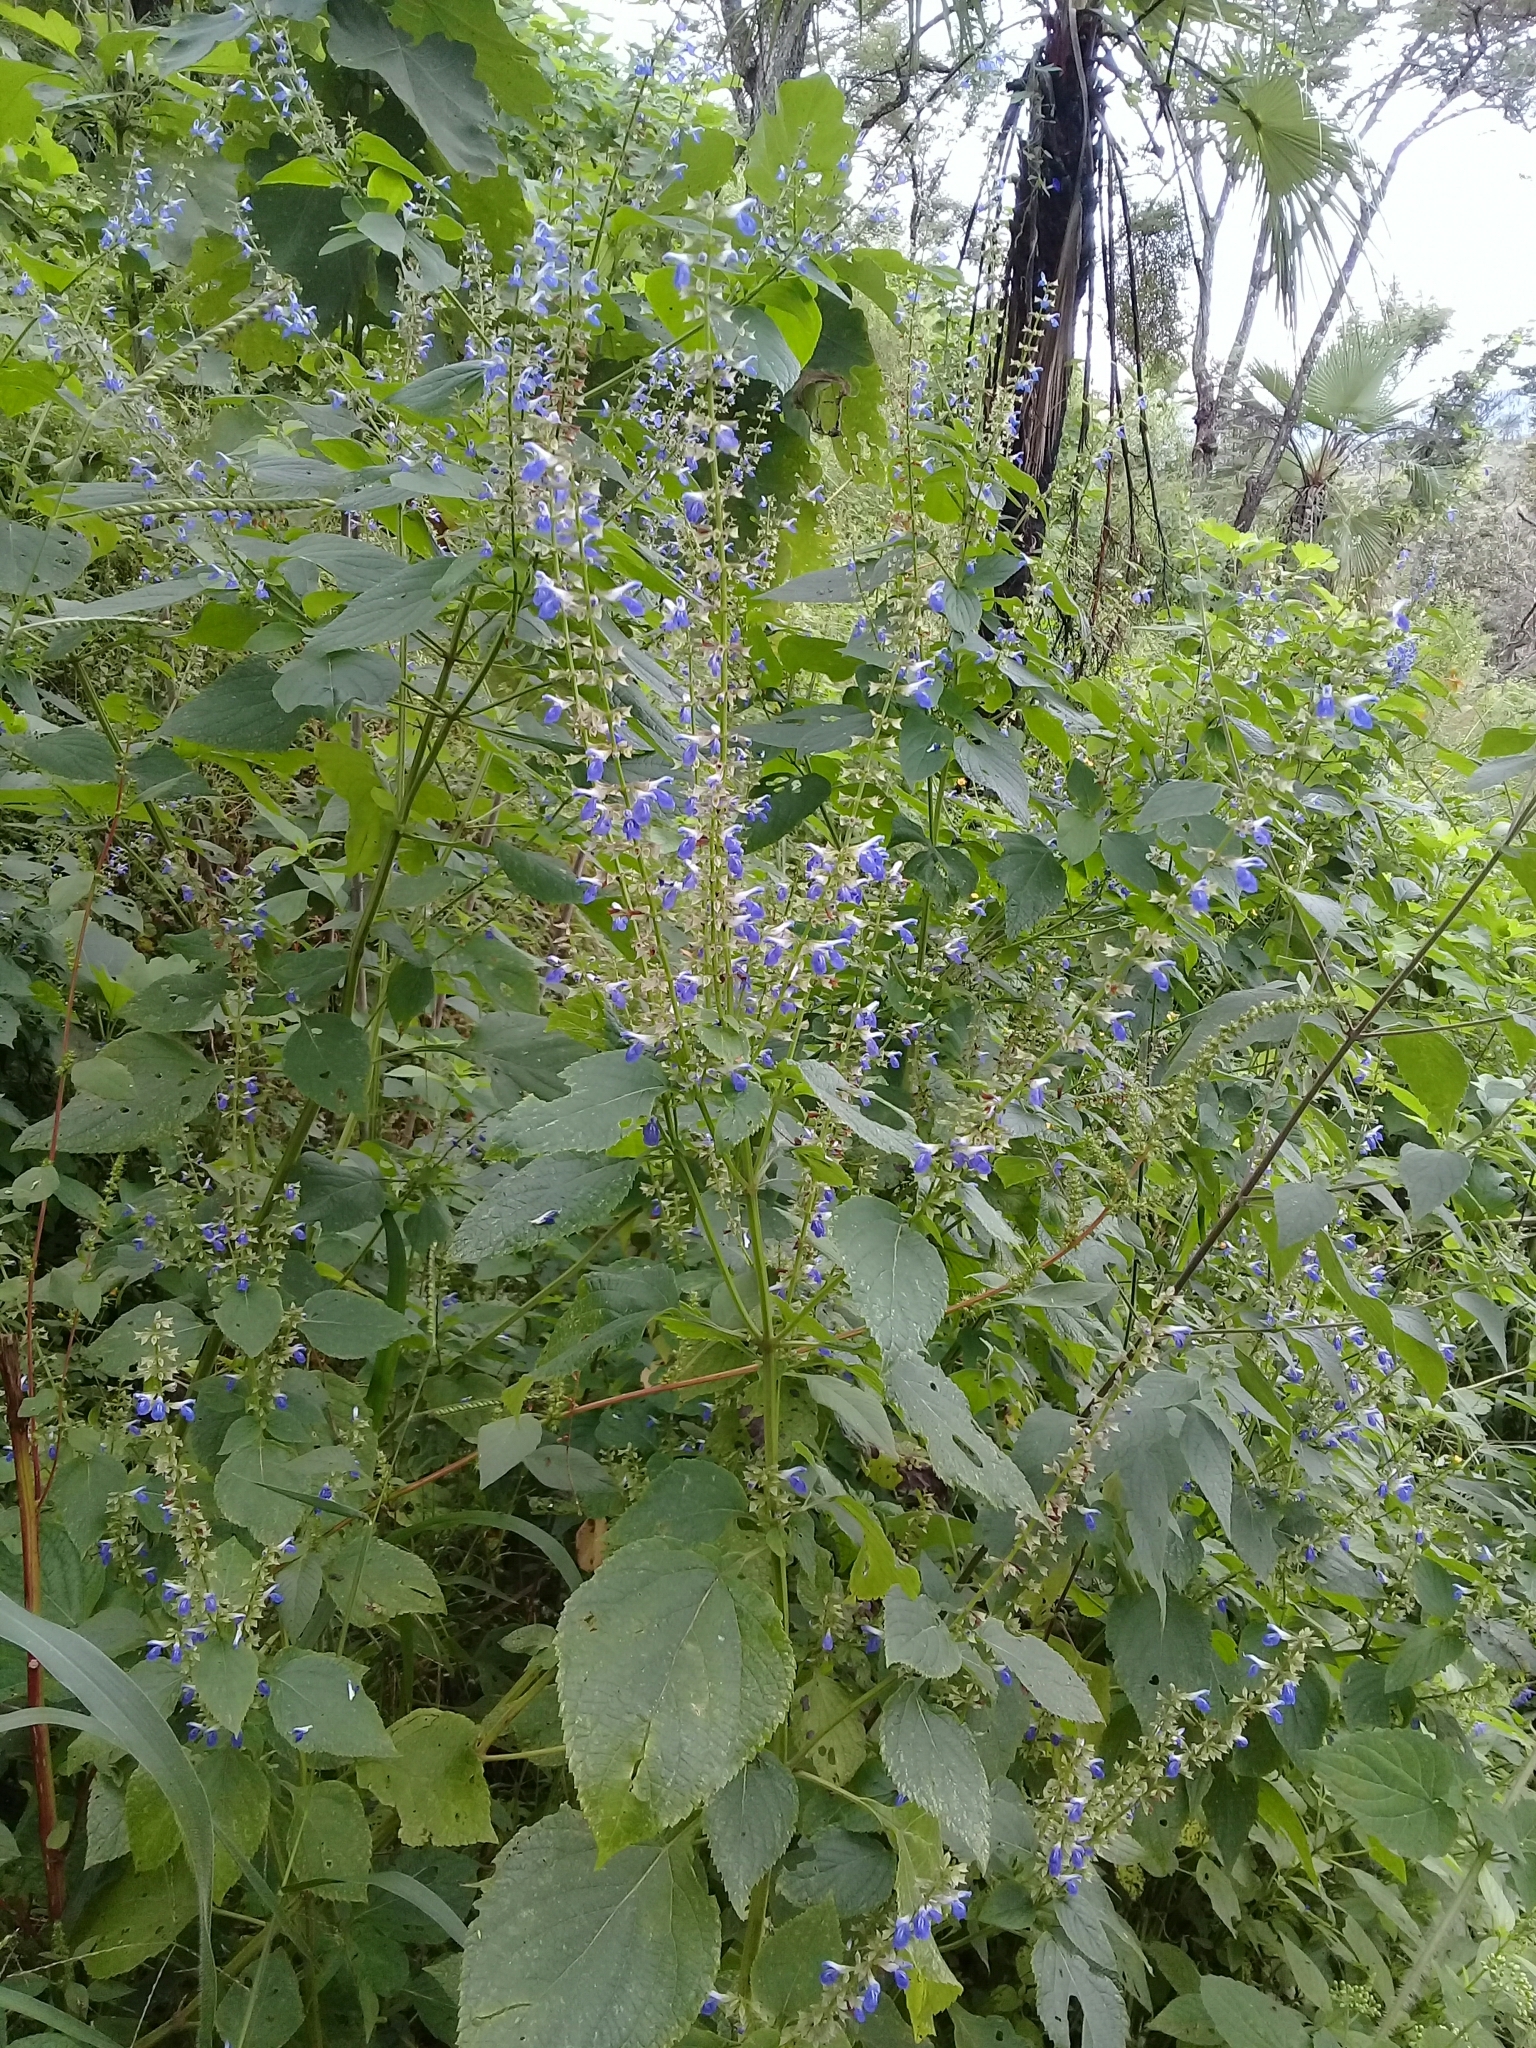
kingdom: Plantae
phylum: Tracheophyta
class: Magnoliopsida
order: Lamiales
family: Lamiaceae
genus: Salvia
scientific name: Salvia longispicata
